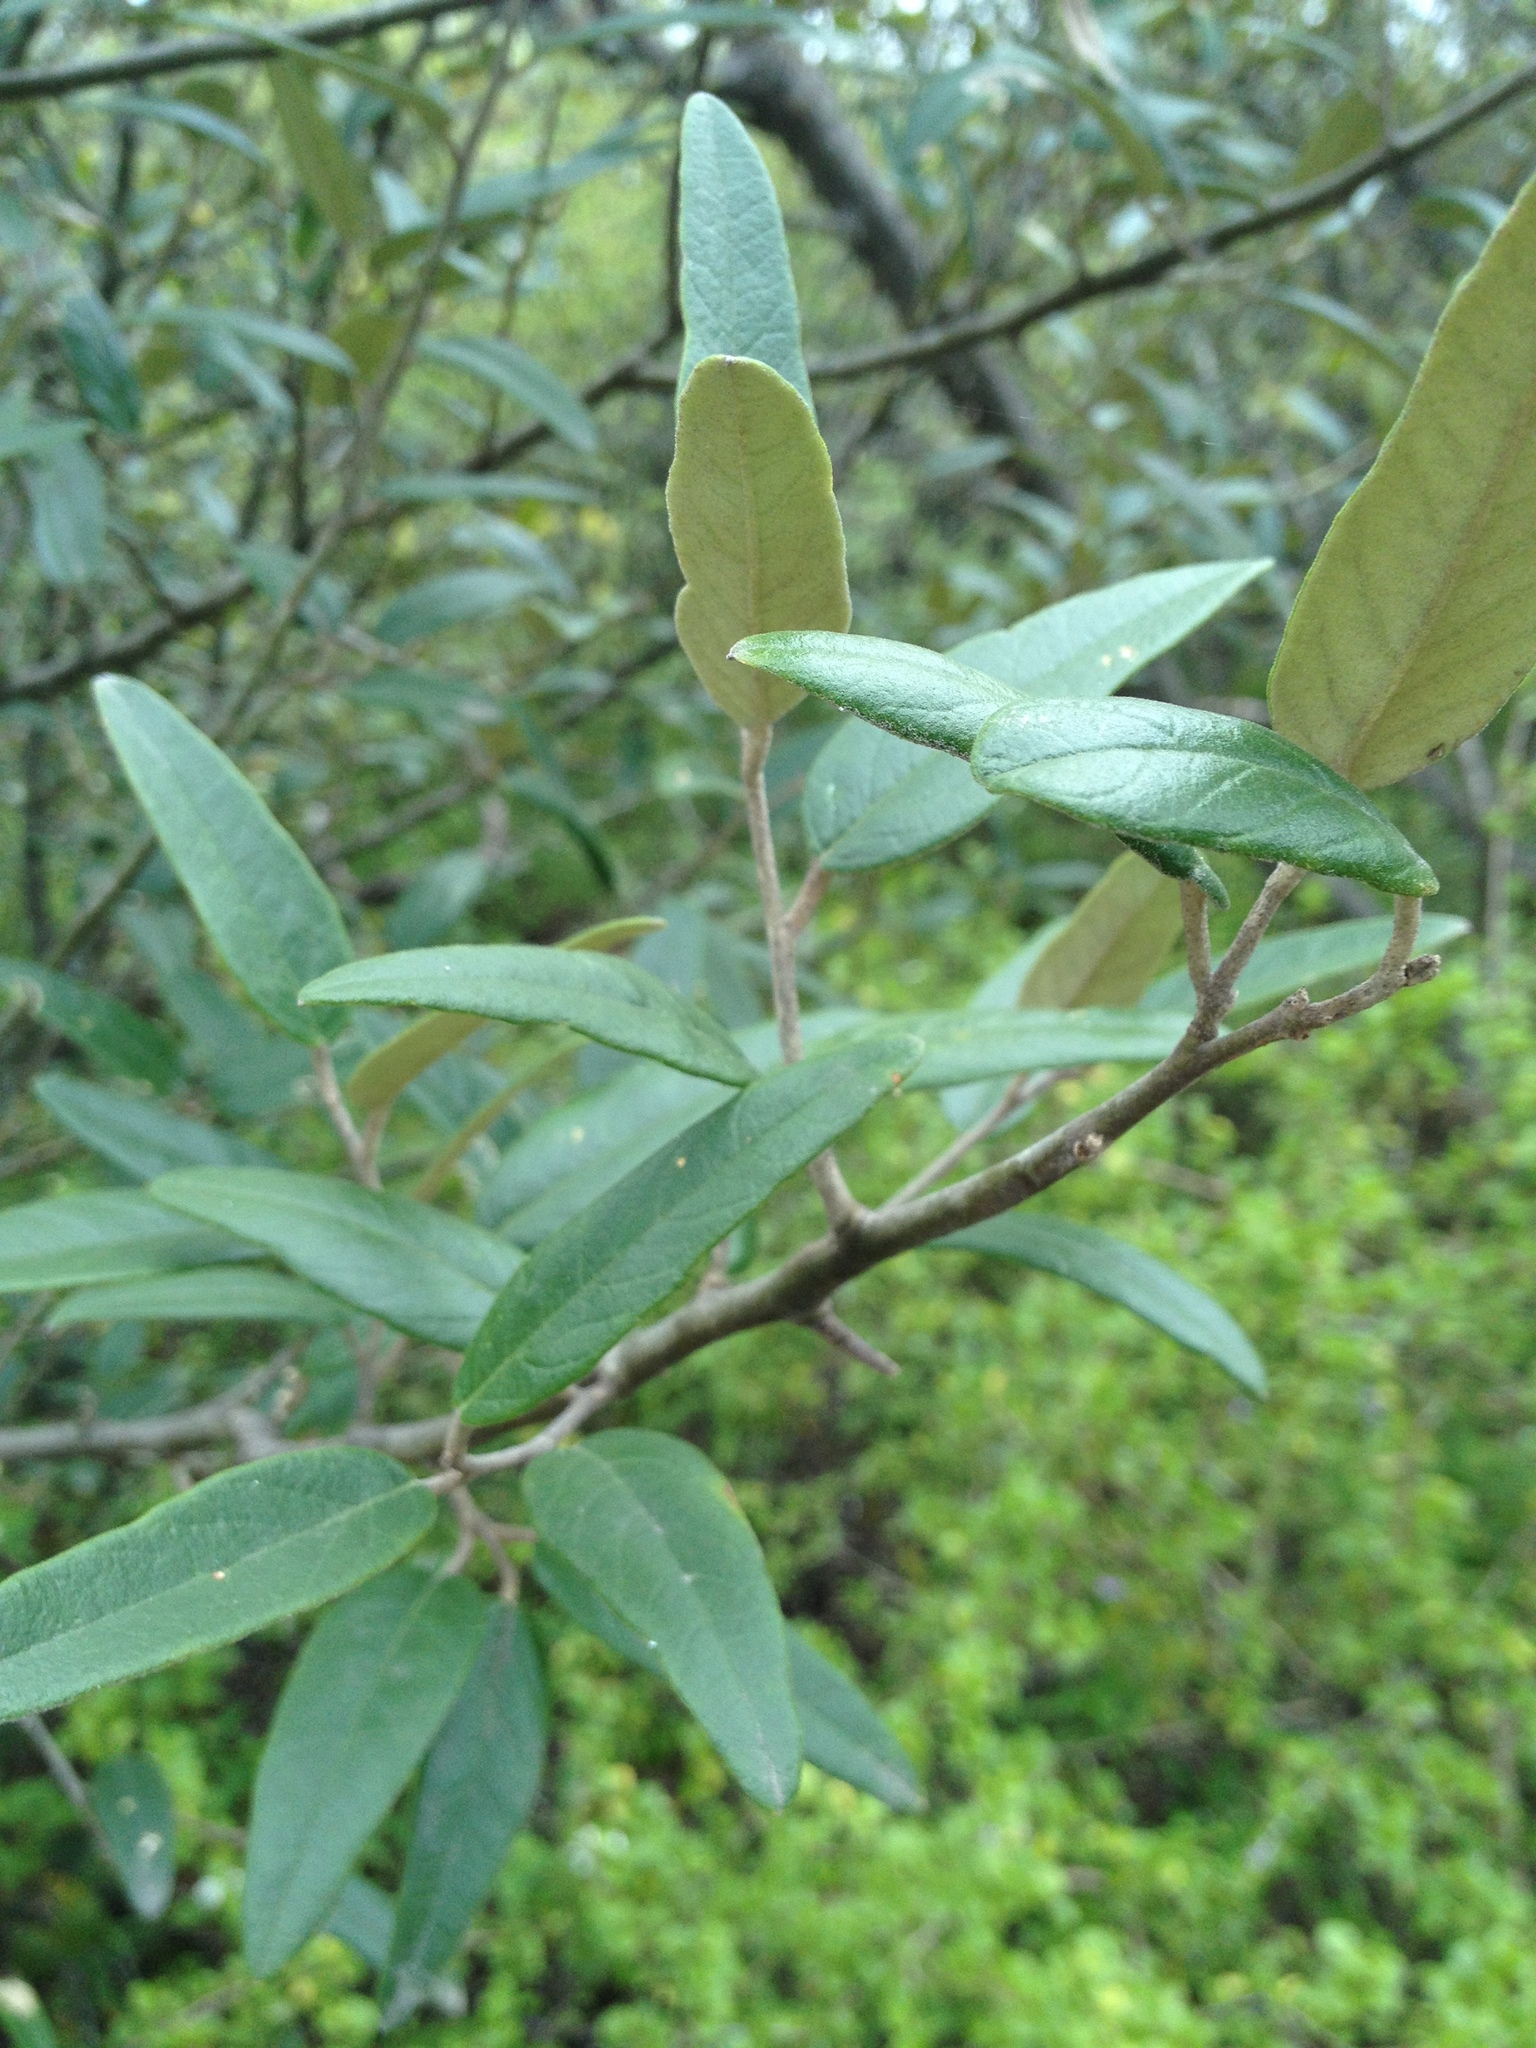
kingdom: Plantae
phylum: Tracheophyta
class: Magnoliopsida
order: Brassicales
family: Capparaceae
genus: Sarcotoxicum
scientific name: Sarcotoxicum salicifolium
